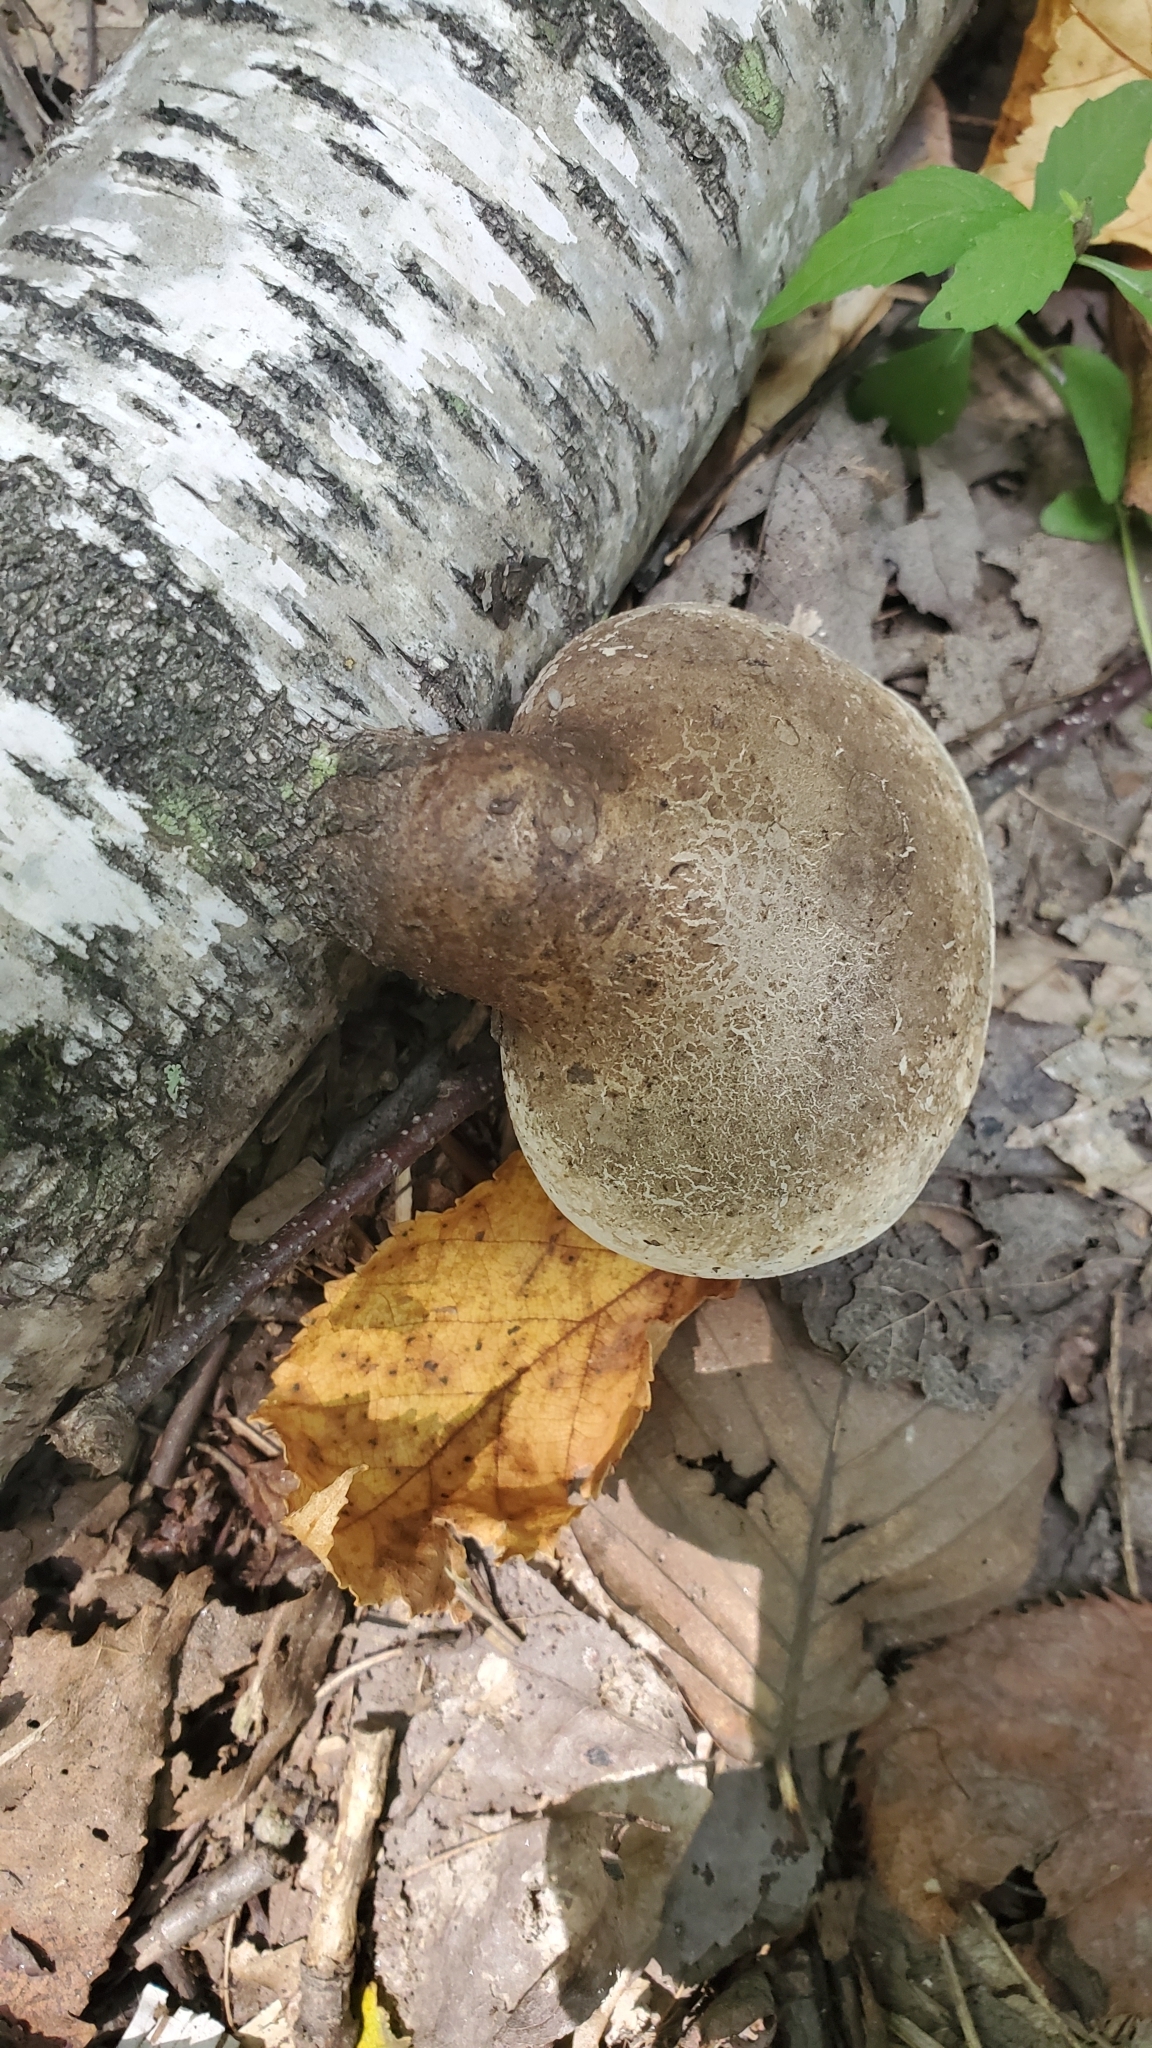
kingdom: Fungi
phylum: Basidiomycota
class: Agaricomycetes
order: Polyporales
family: Fomitopsidaceae
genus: Fomitopsis
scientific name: Fomitopsis betulina
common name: Birch polypore
